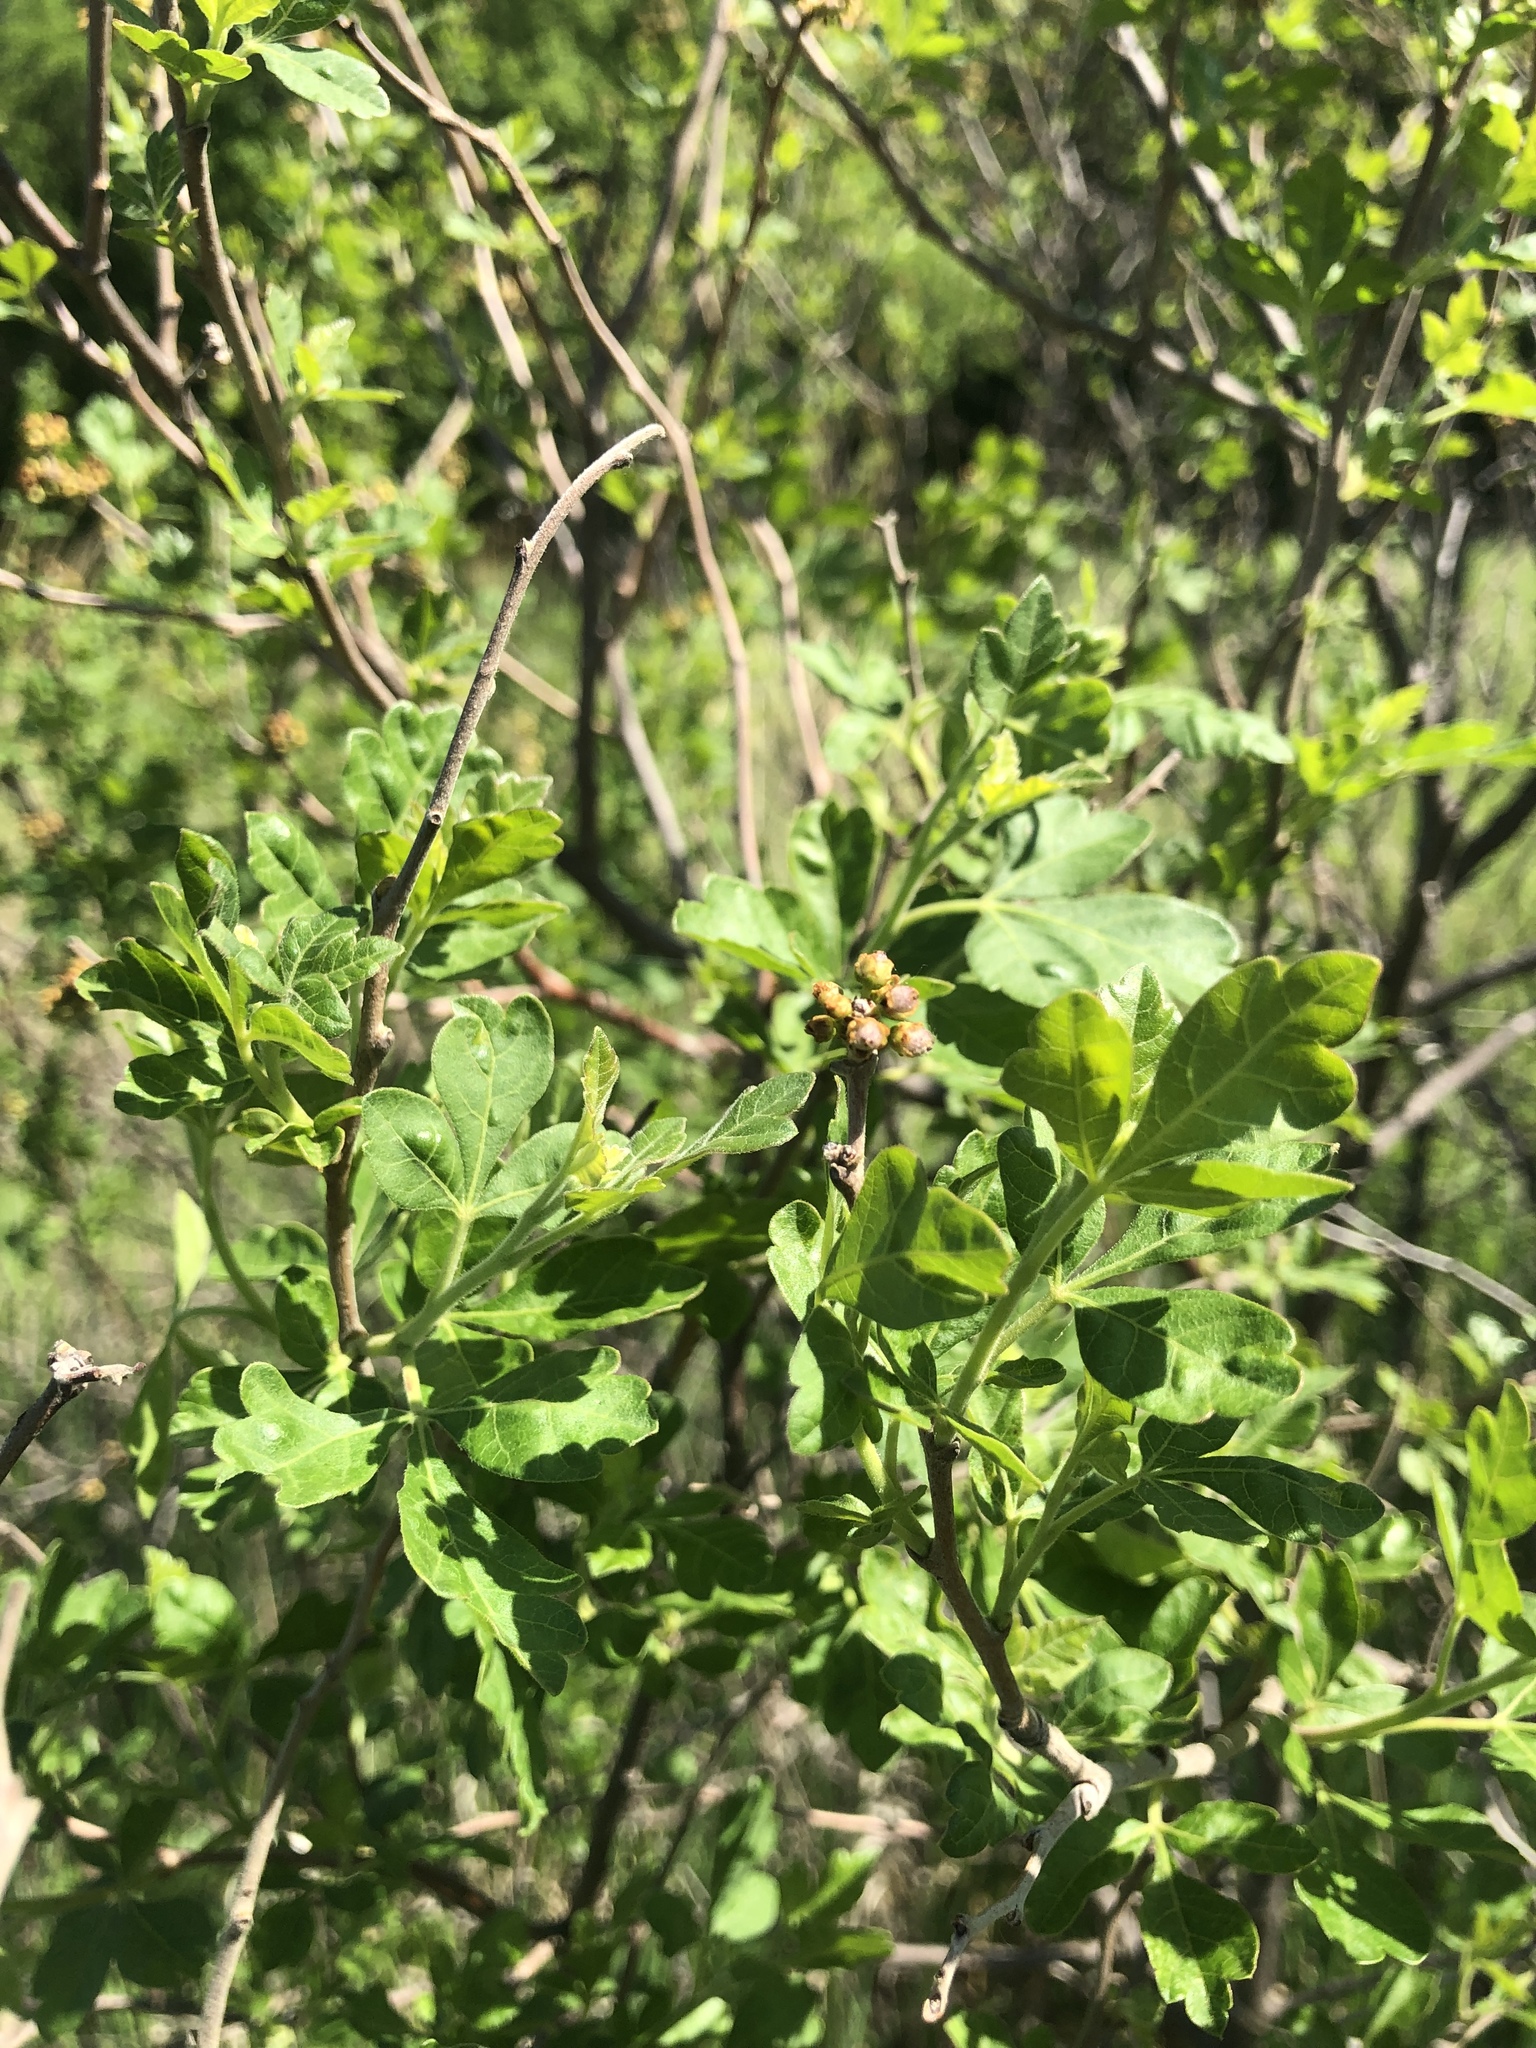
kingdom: Plantae
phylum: Tracheophyta
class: Magnoliopsida
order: Sapindales
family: Anacardiaceae
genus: Rhus
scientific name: Rhus aromatica
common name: Aromatic sumac
